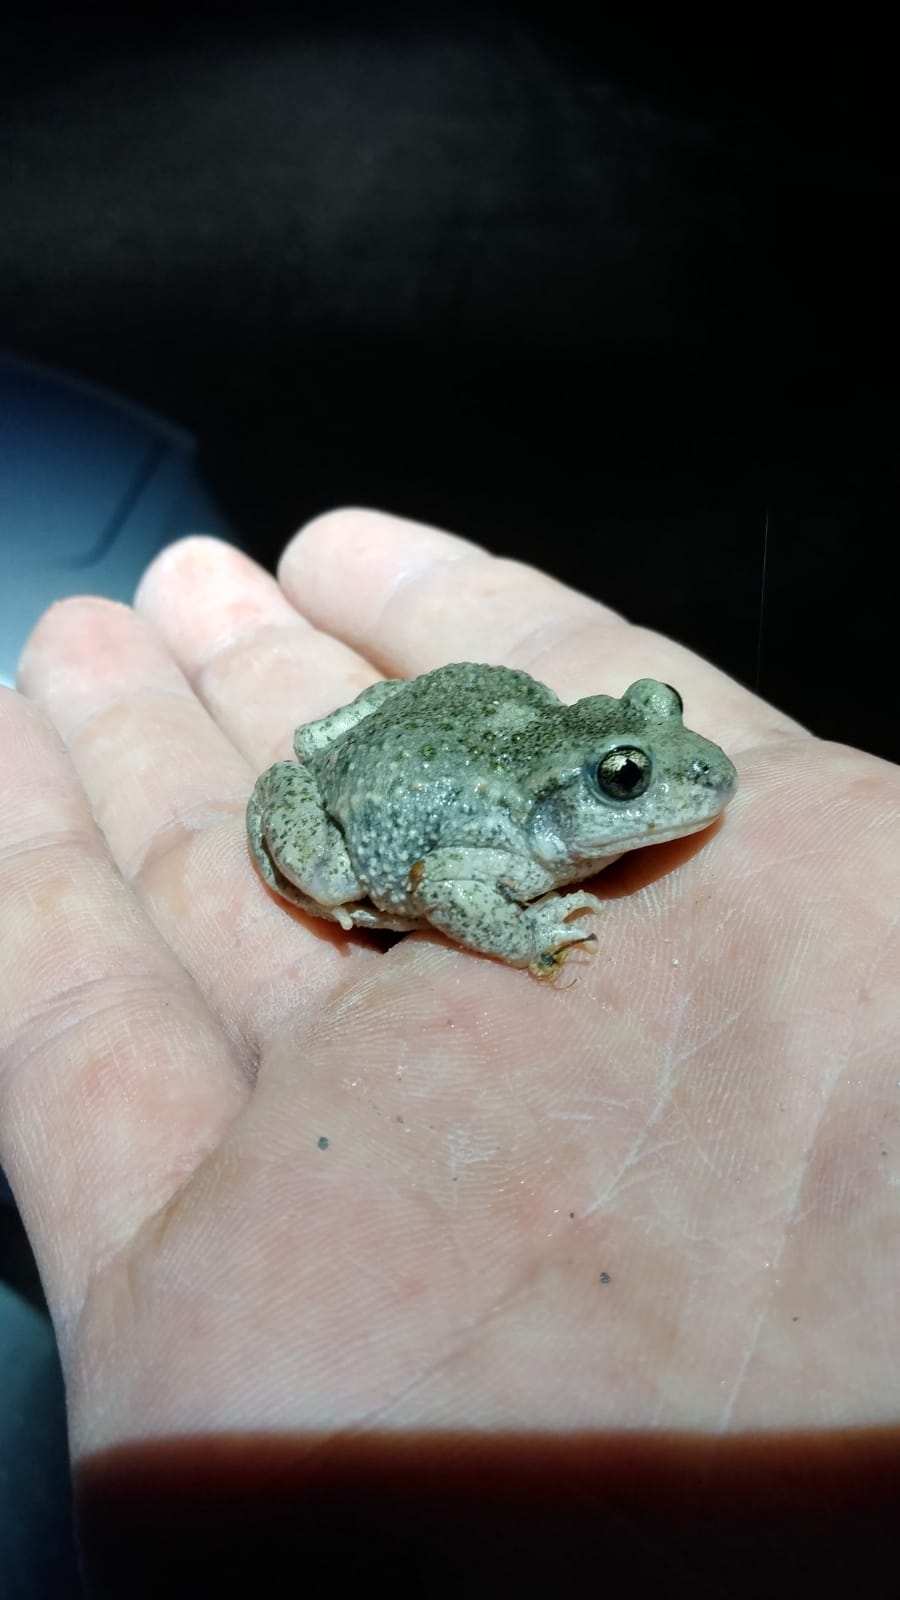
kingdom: Animalia
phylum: Chordata
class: Amphibia
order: Anura
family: Alytidae
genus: Alytes
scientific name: Alytes obstetricans
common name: Midwife toad
